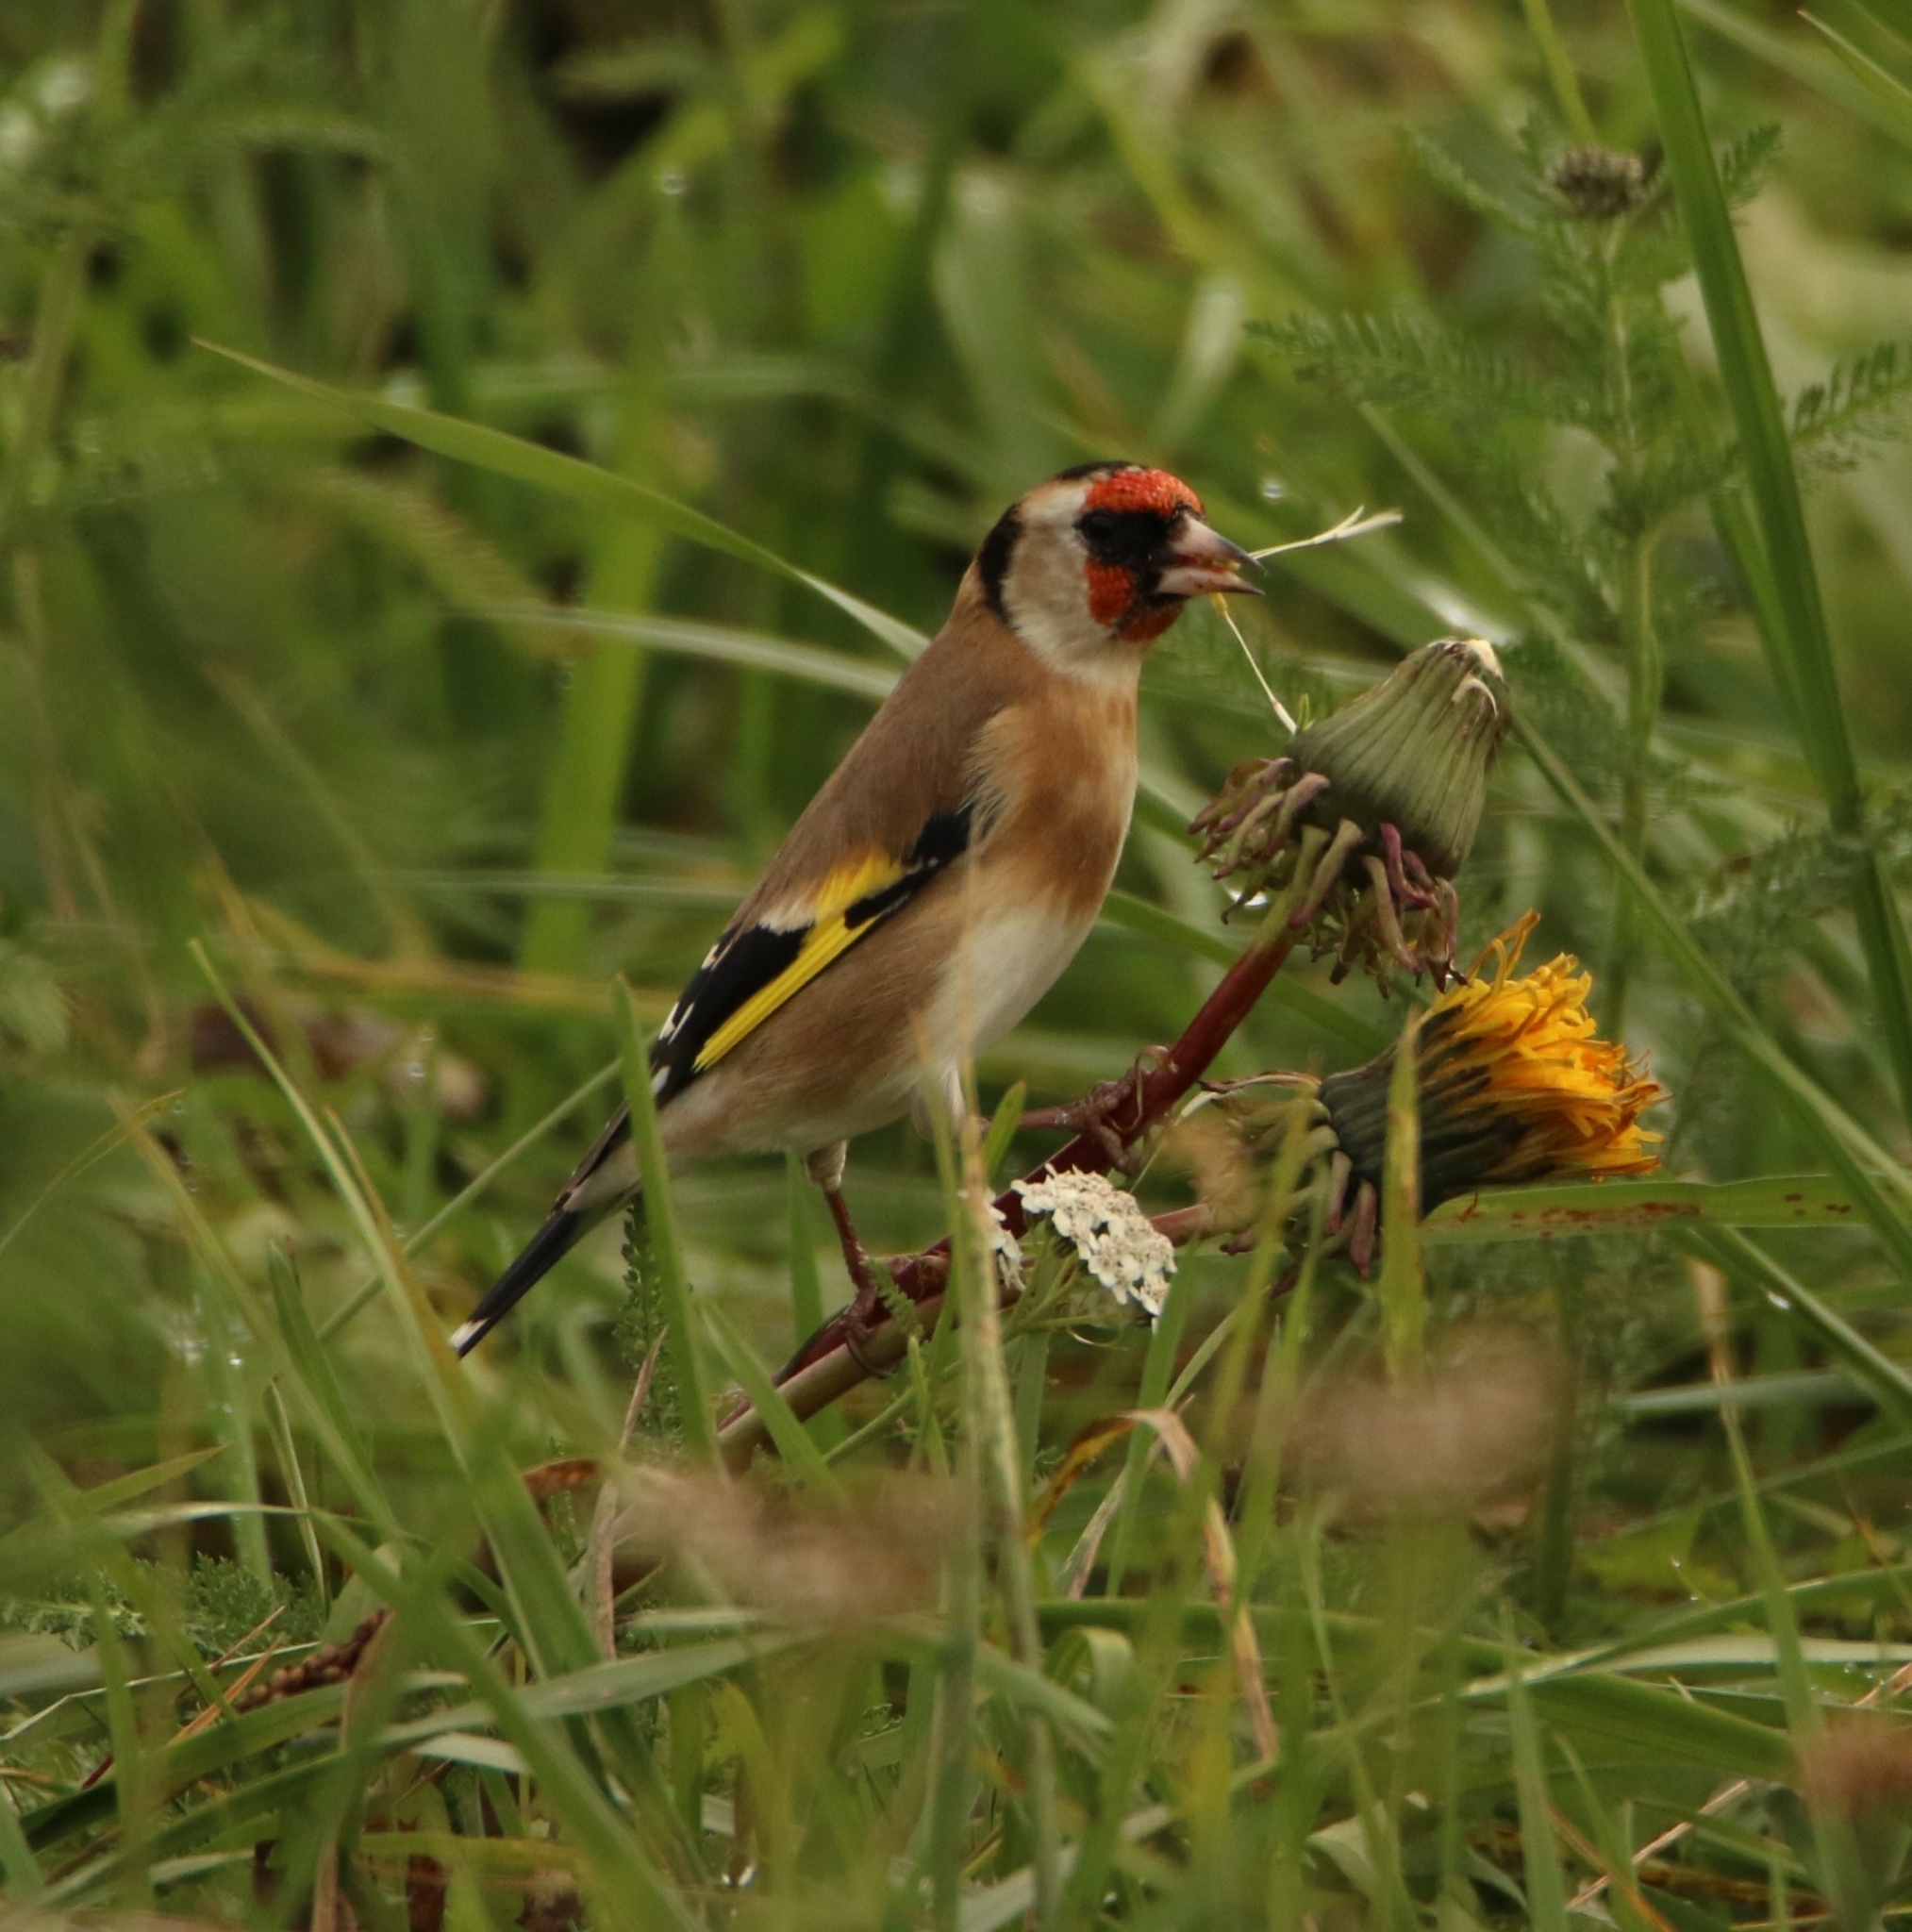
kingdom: Animalia
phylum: Chordata
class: Aves
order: Passeriformes
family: Fringillidae
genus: Carduelis
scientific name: Carduelis carduelis
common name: European goldfinch
